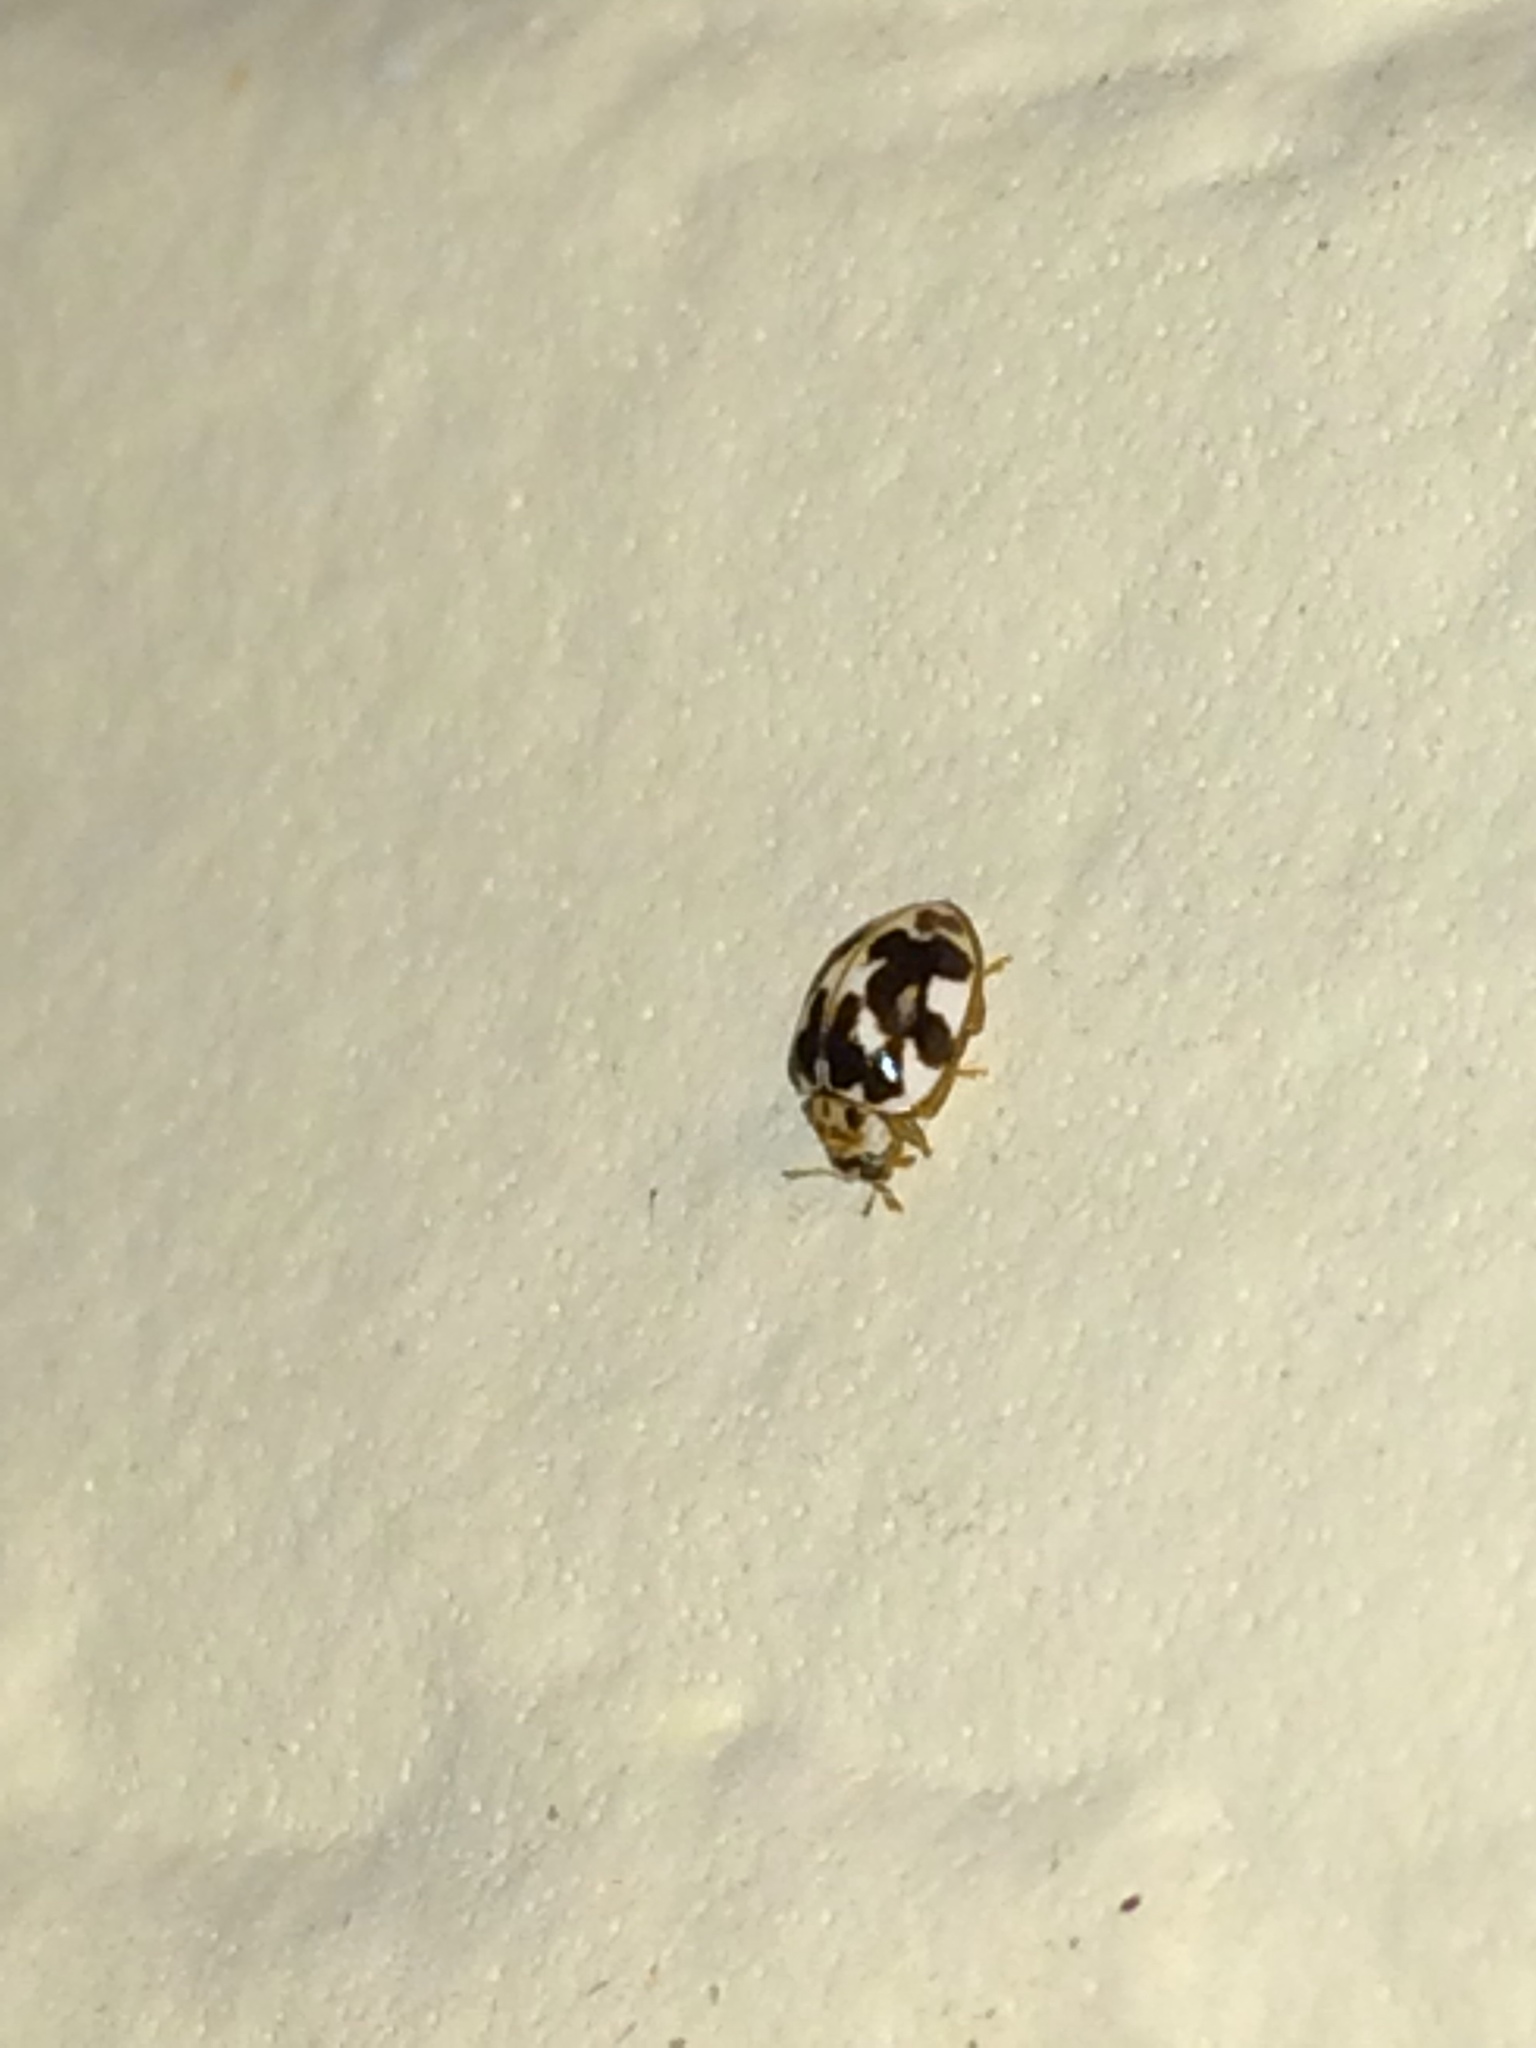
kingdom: Animalia
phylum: Arthropoda
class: Insecta
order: Coleoptera
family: Coccinellidae
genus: Psyllobora
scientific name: Psyllobora vigintimaculata
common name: Ladybird beetle
